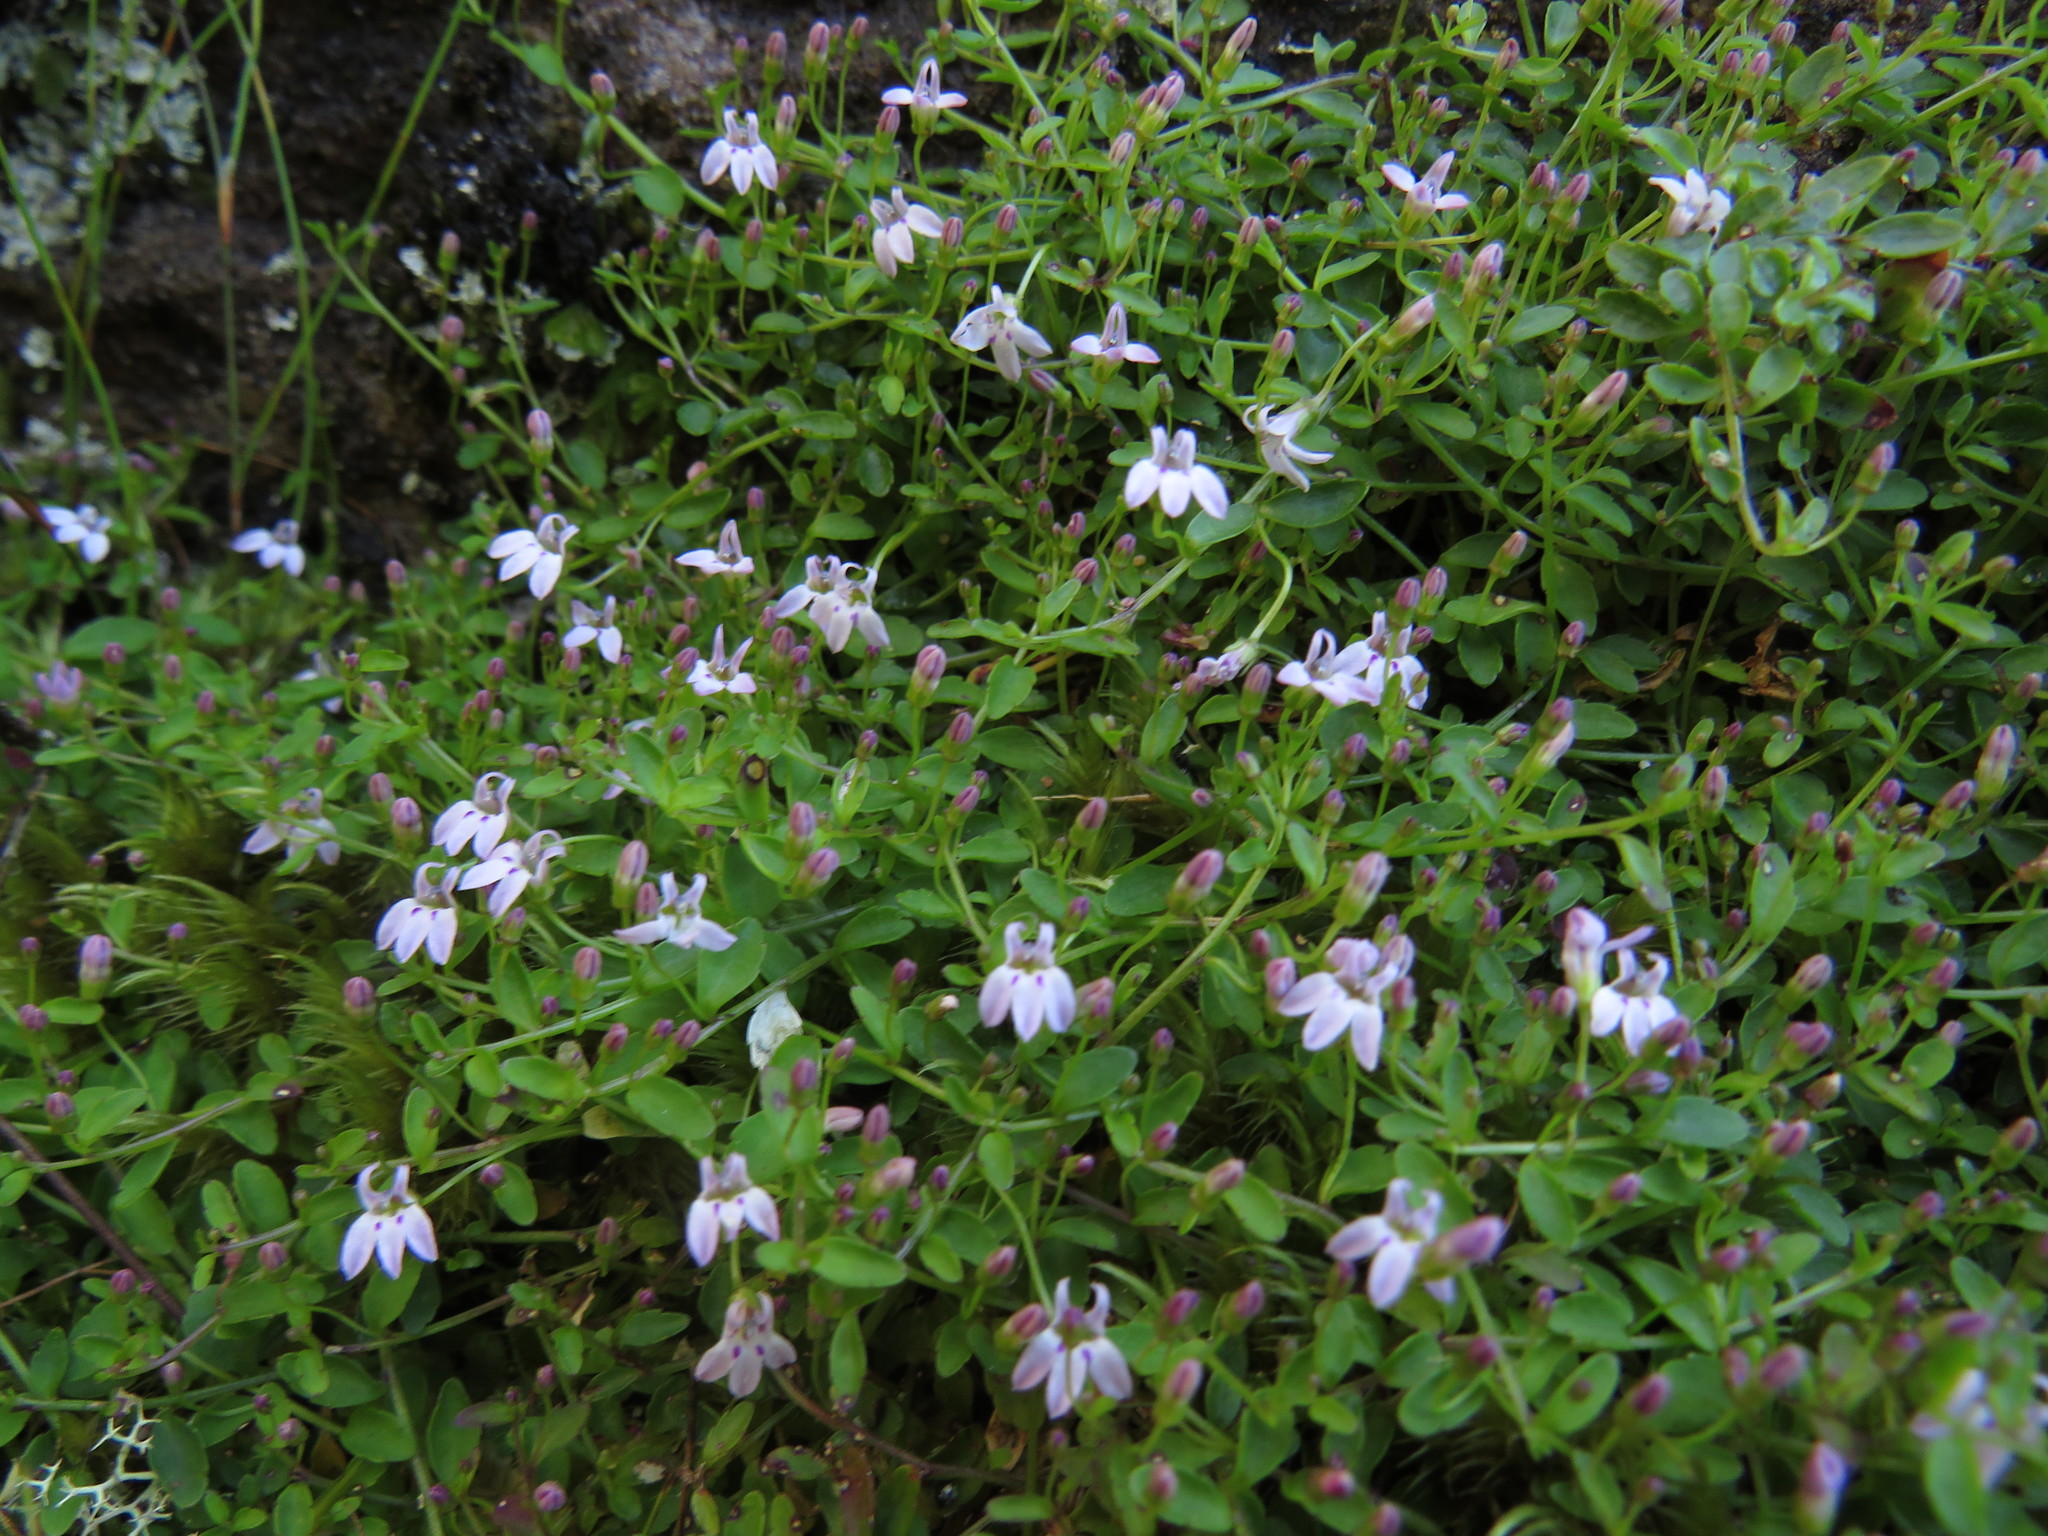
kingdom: Plantae
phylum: Tracheophyta
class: Magnoliopsida
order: Asterales
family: Campanulaceae
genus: Unigenes
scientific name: Unigenes humifusa
